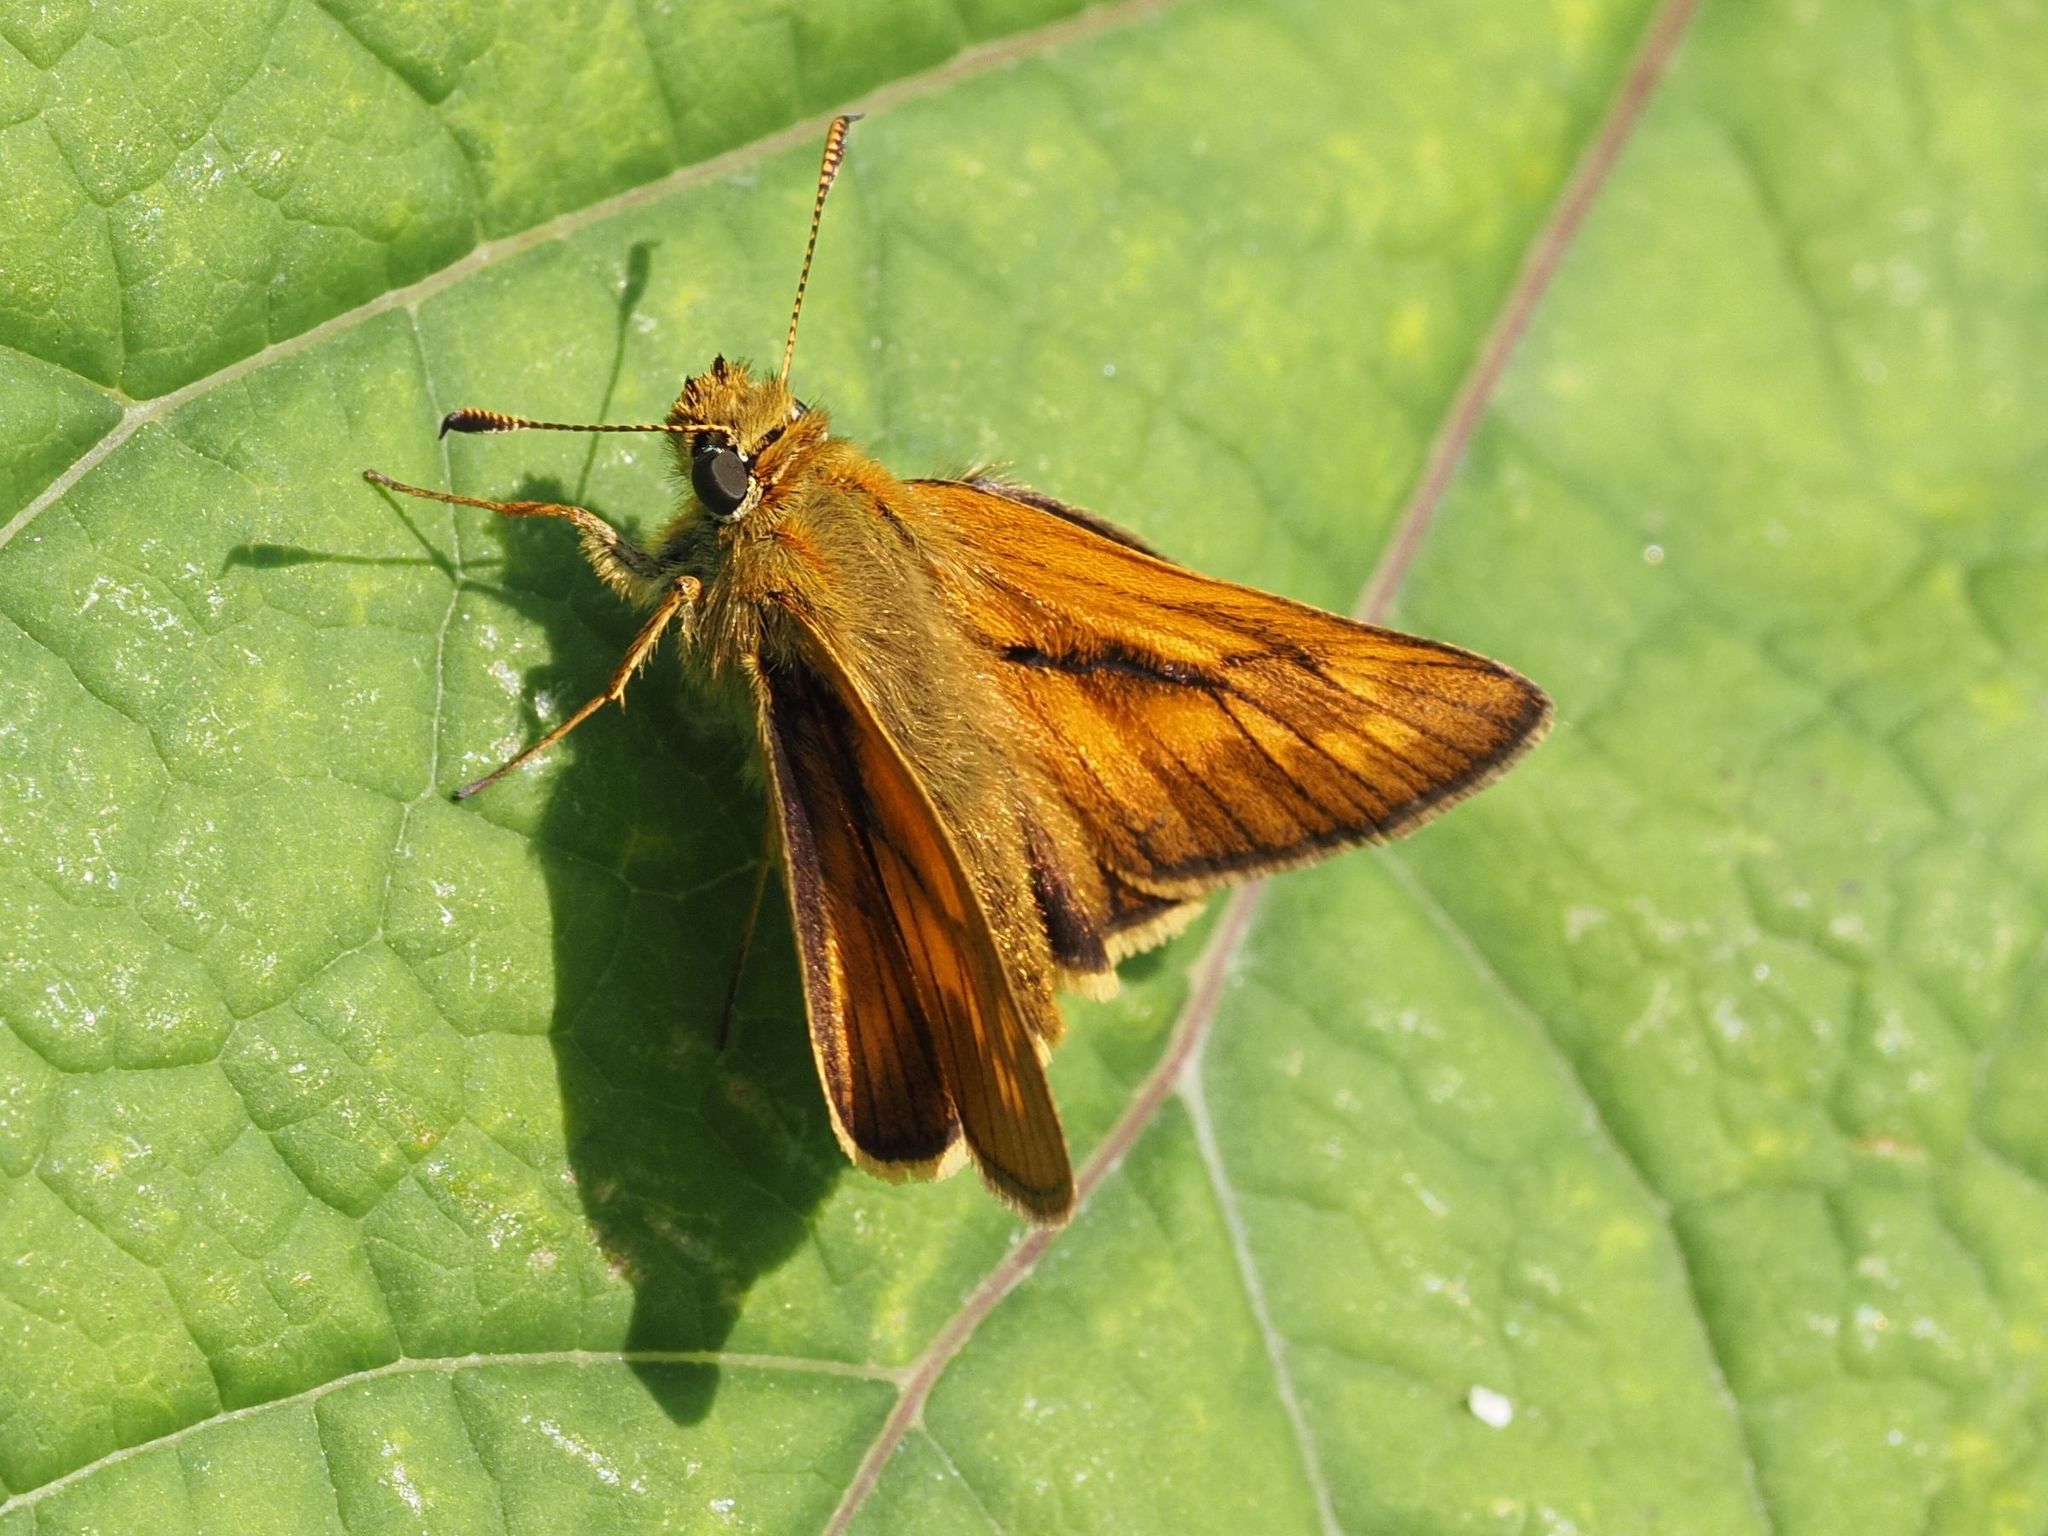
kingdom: Animalia
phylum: Arthropoda
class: Insecta
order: Lepidoptera
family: Hesperiidae
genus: Ochlodes
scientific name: Ochlodes venata
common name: Large skipper
